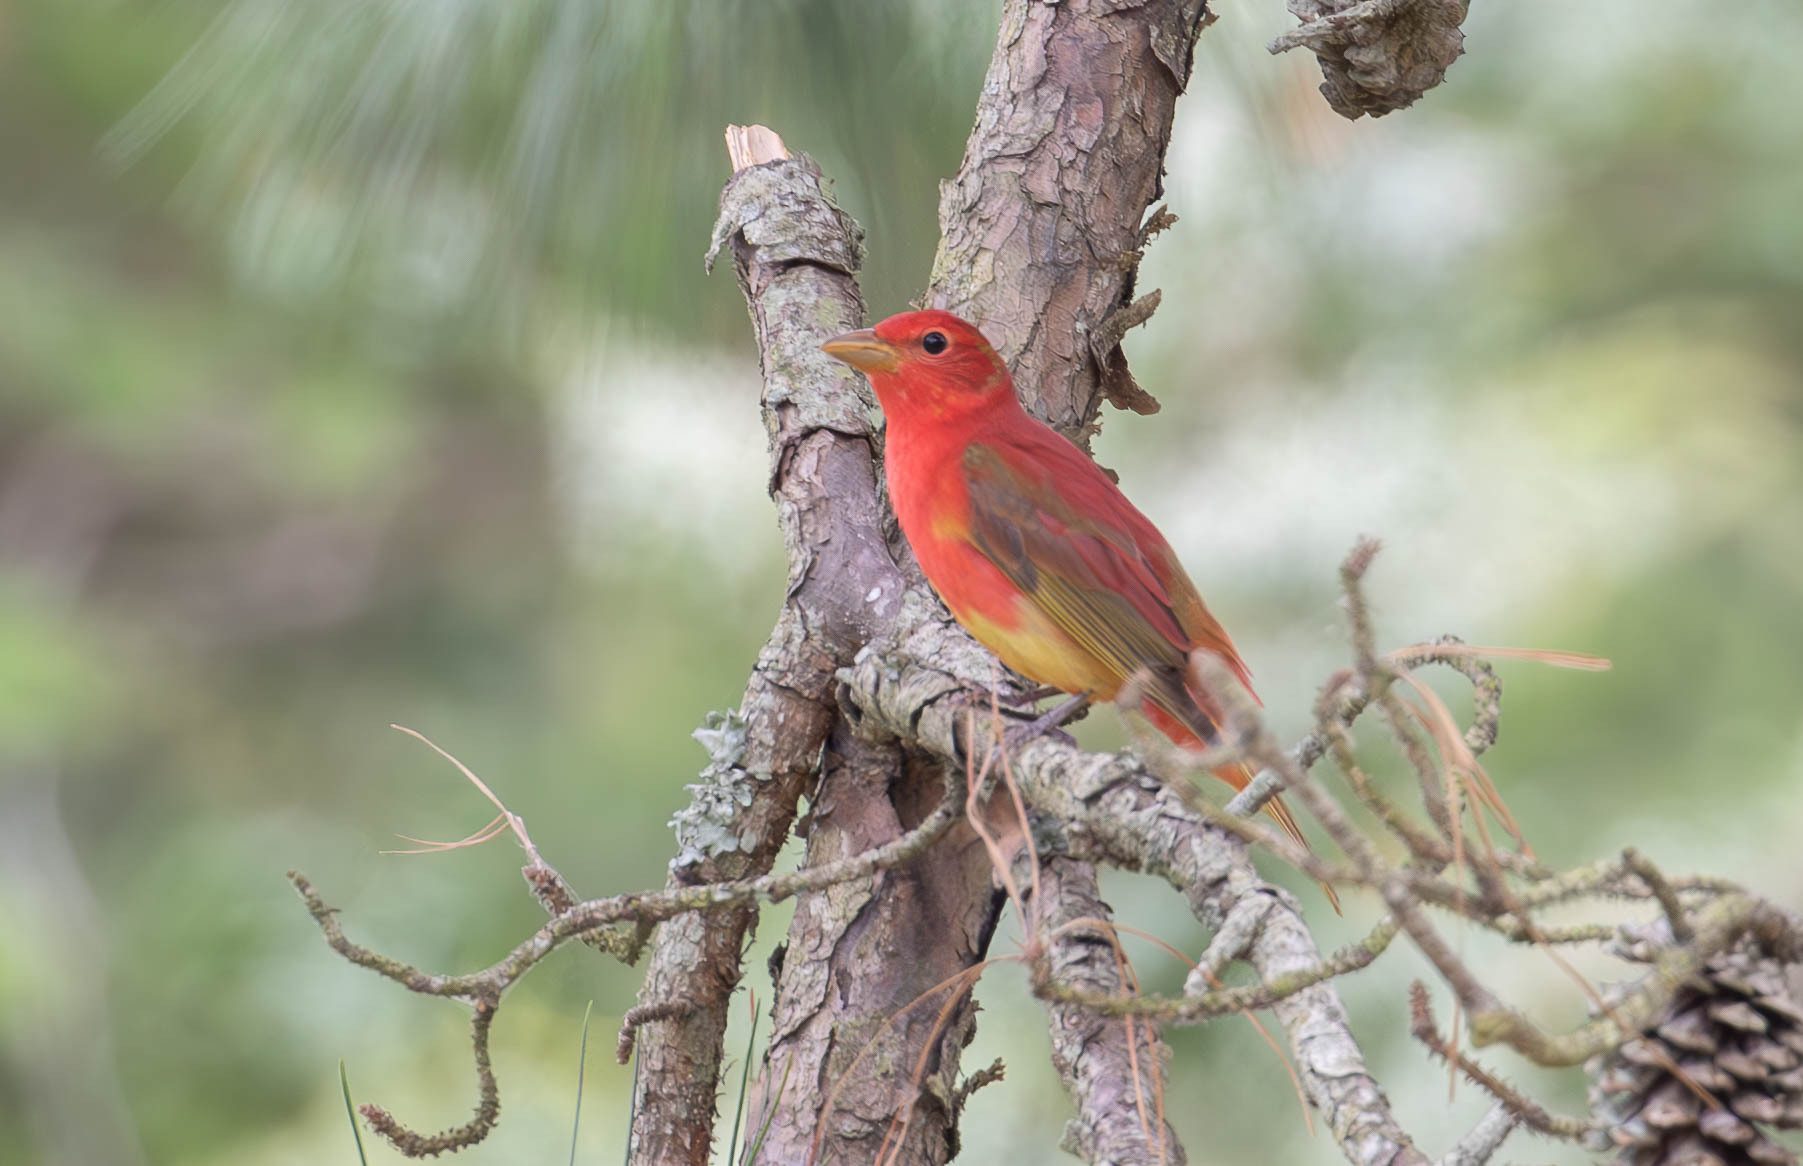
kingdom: Animalia
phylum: Chordata
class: Aves
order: Passeriformes
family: Cardinalidae
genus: Piranga
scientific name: Piranga rubra
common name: Summer tanager
